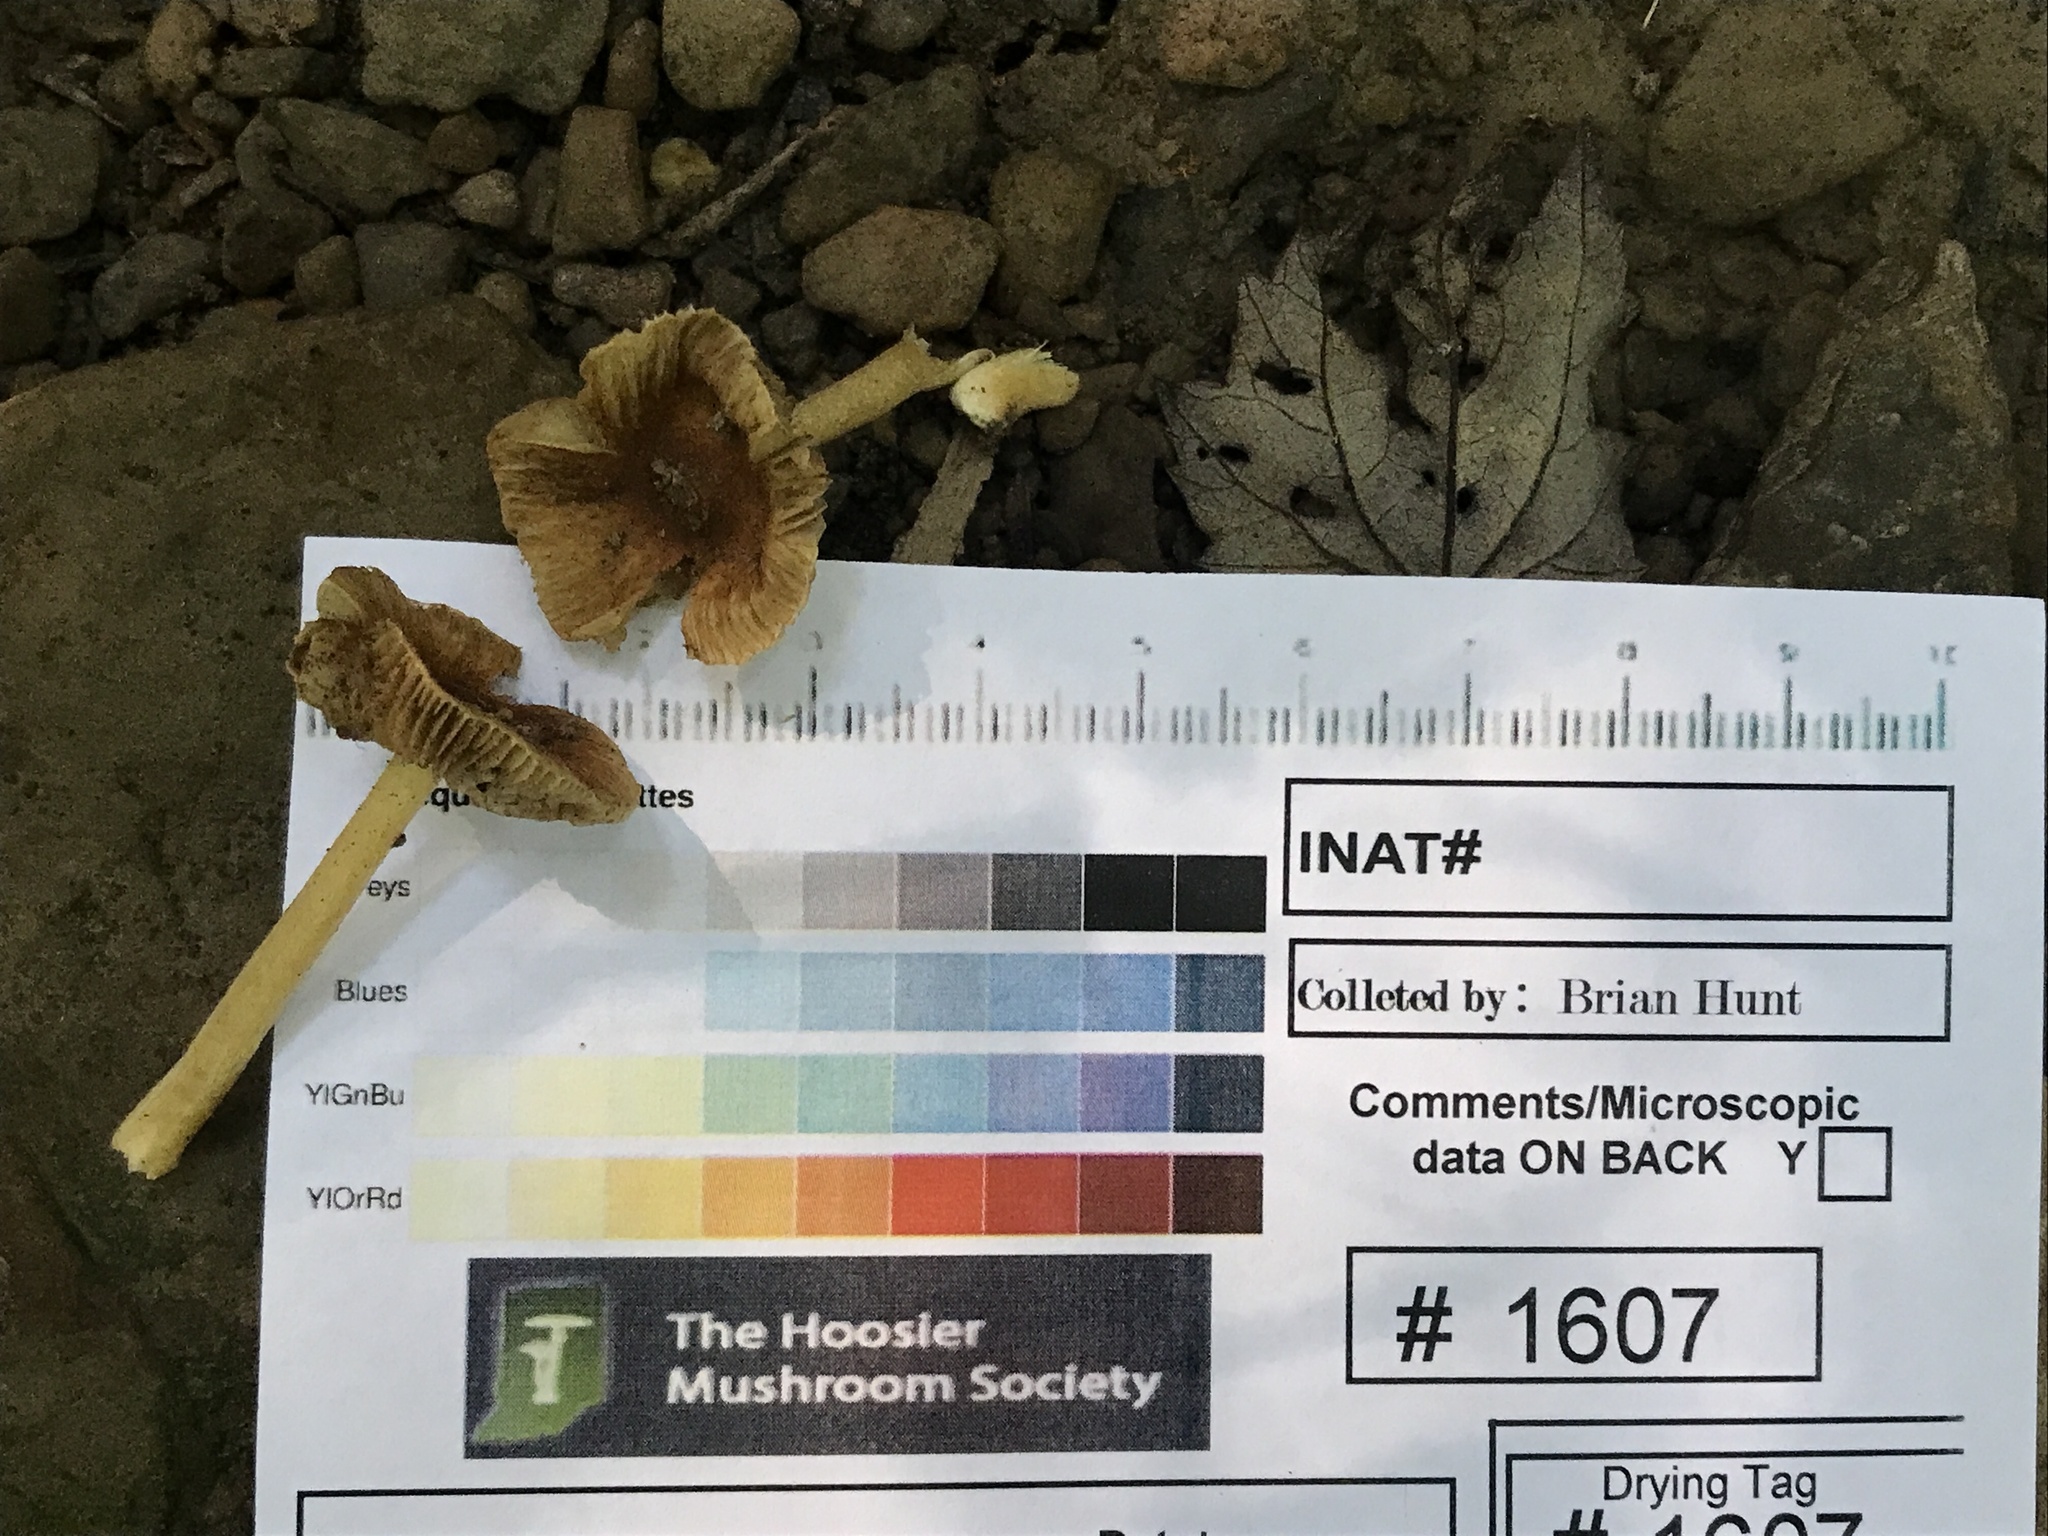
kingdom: Fungi
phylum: Basidiomycota
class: Agaricomycetes
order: Agaricales
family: Inocybaceae
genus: Mallocybe
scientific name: Mallocybe unicolor
